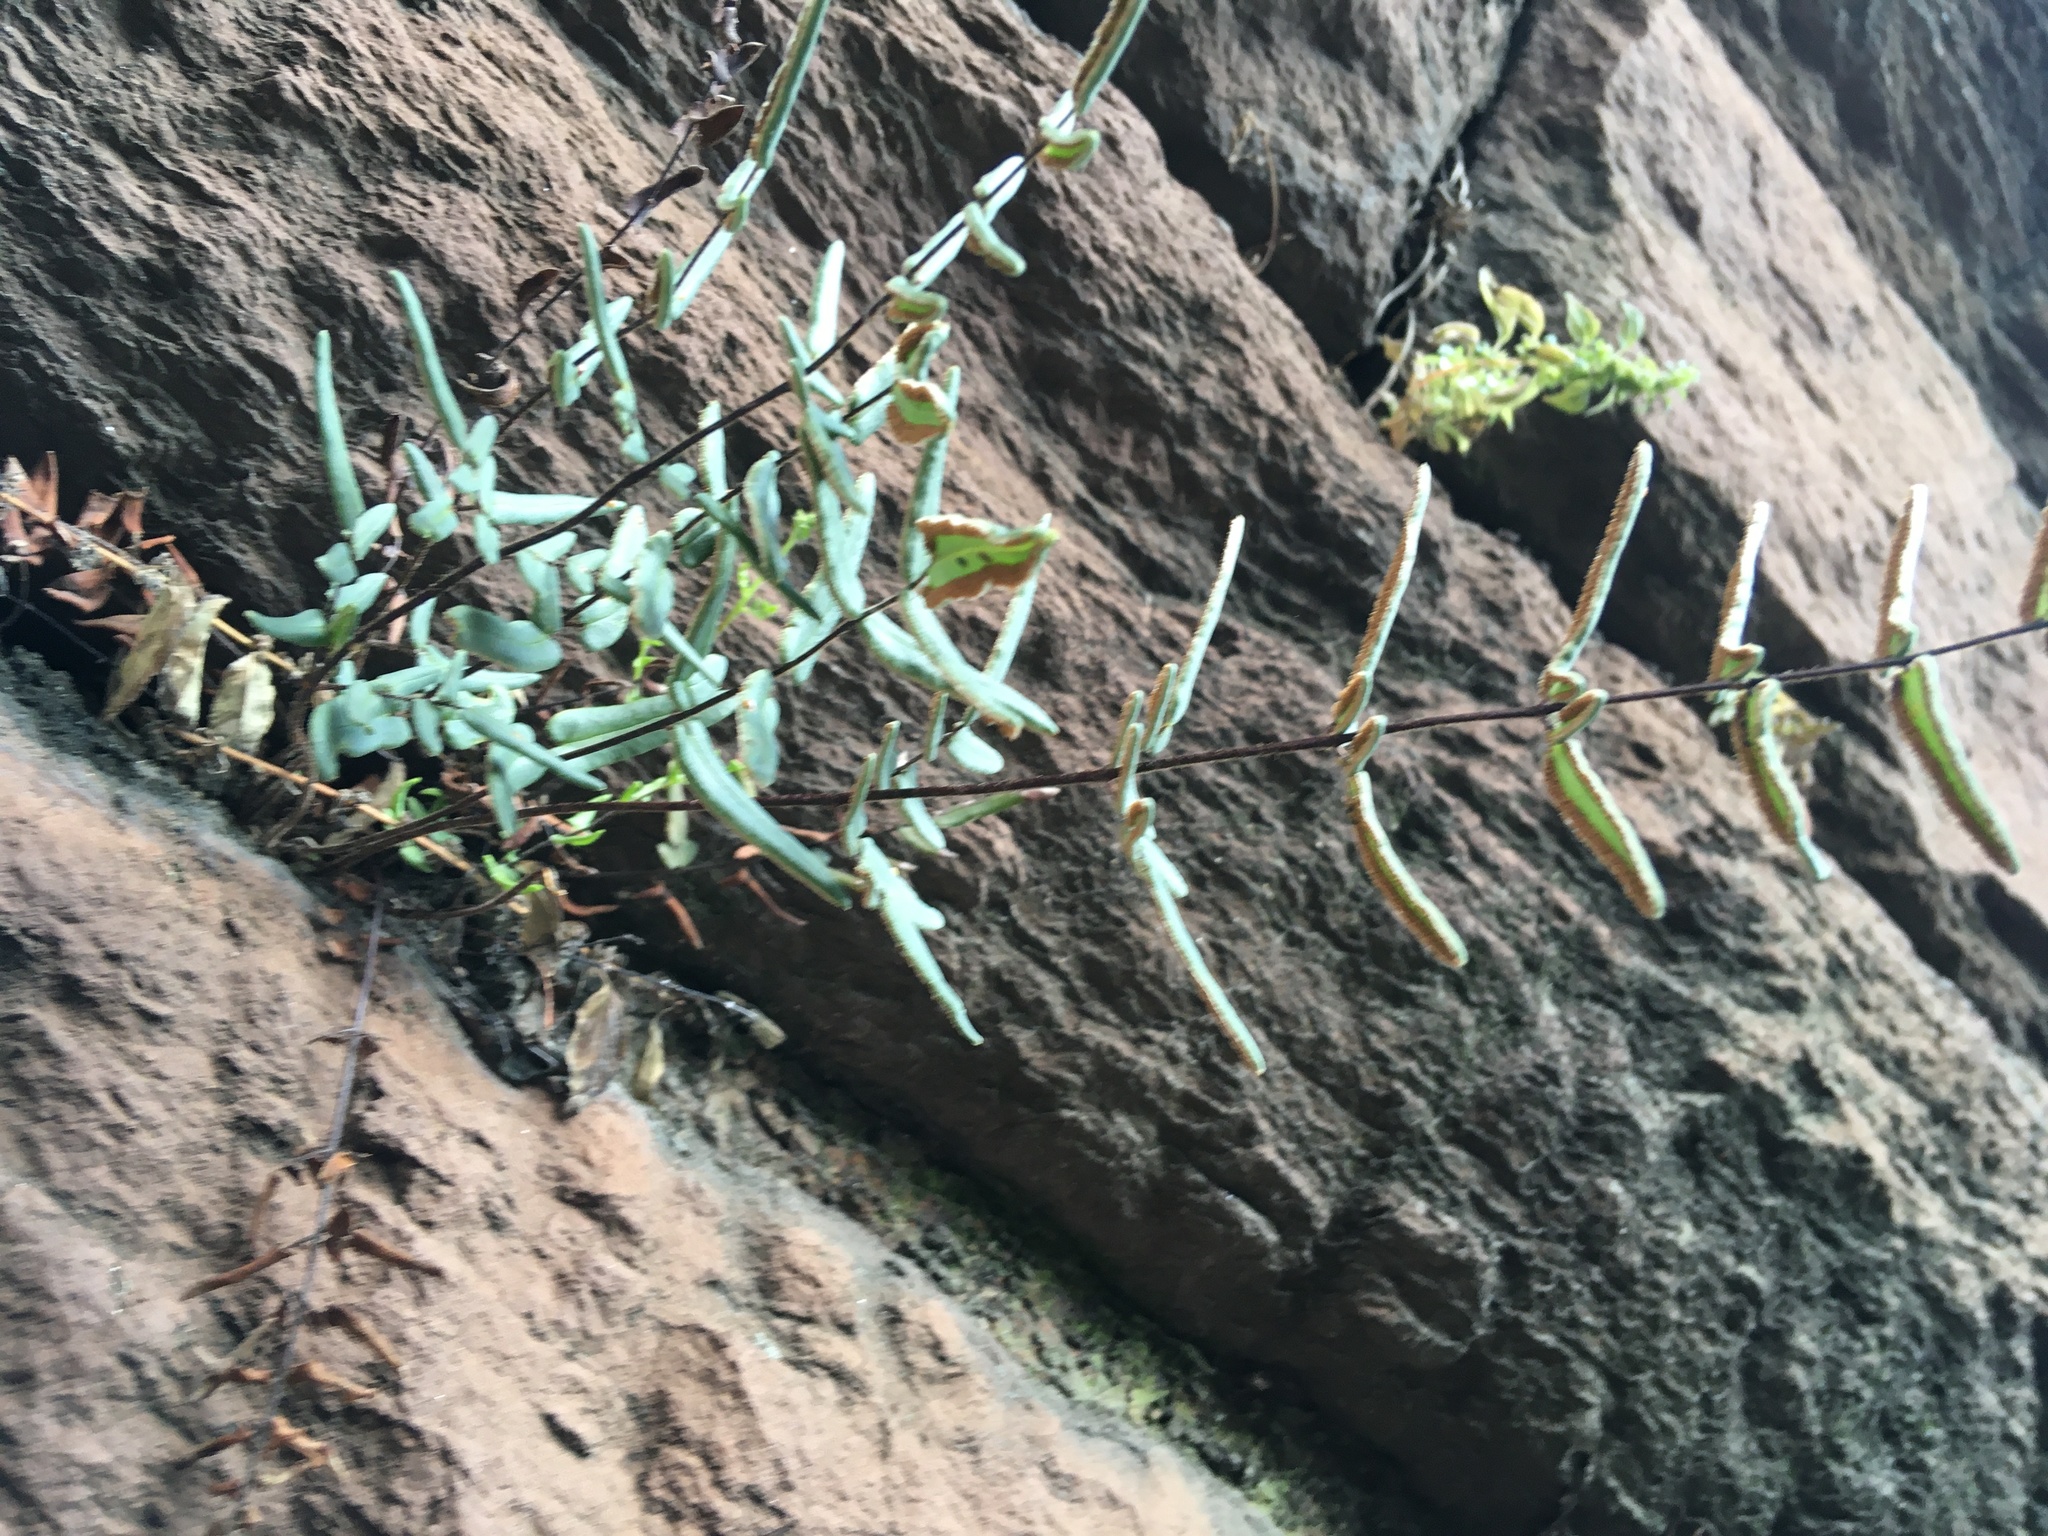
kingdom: Plantae
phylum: Tracheophyta
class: Polypodiopsida
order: Polypodiales
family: Pteridaceae
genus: Pellaea
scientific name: Pellaea atropurpurea
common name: Hairy cliffbrake
